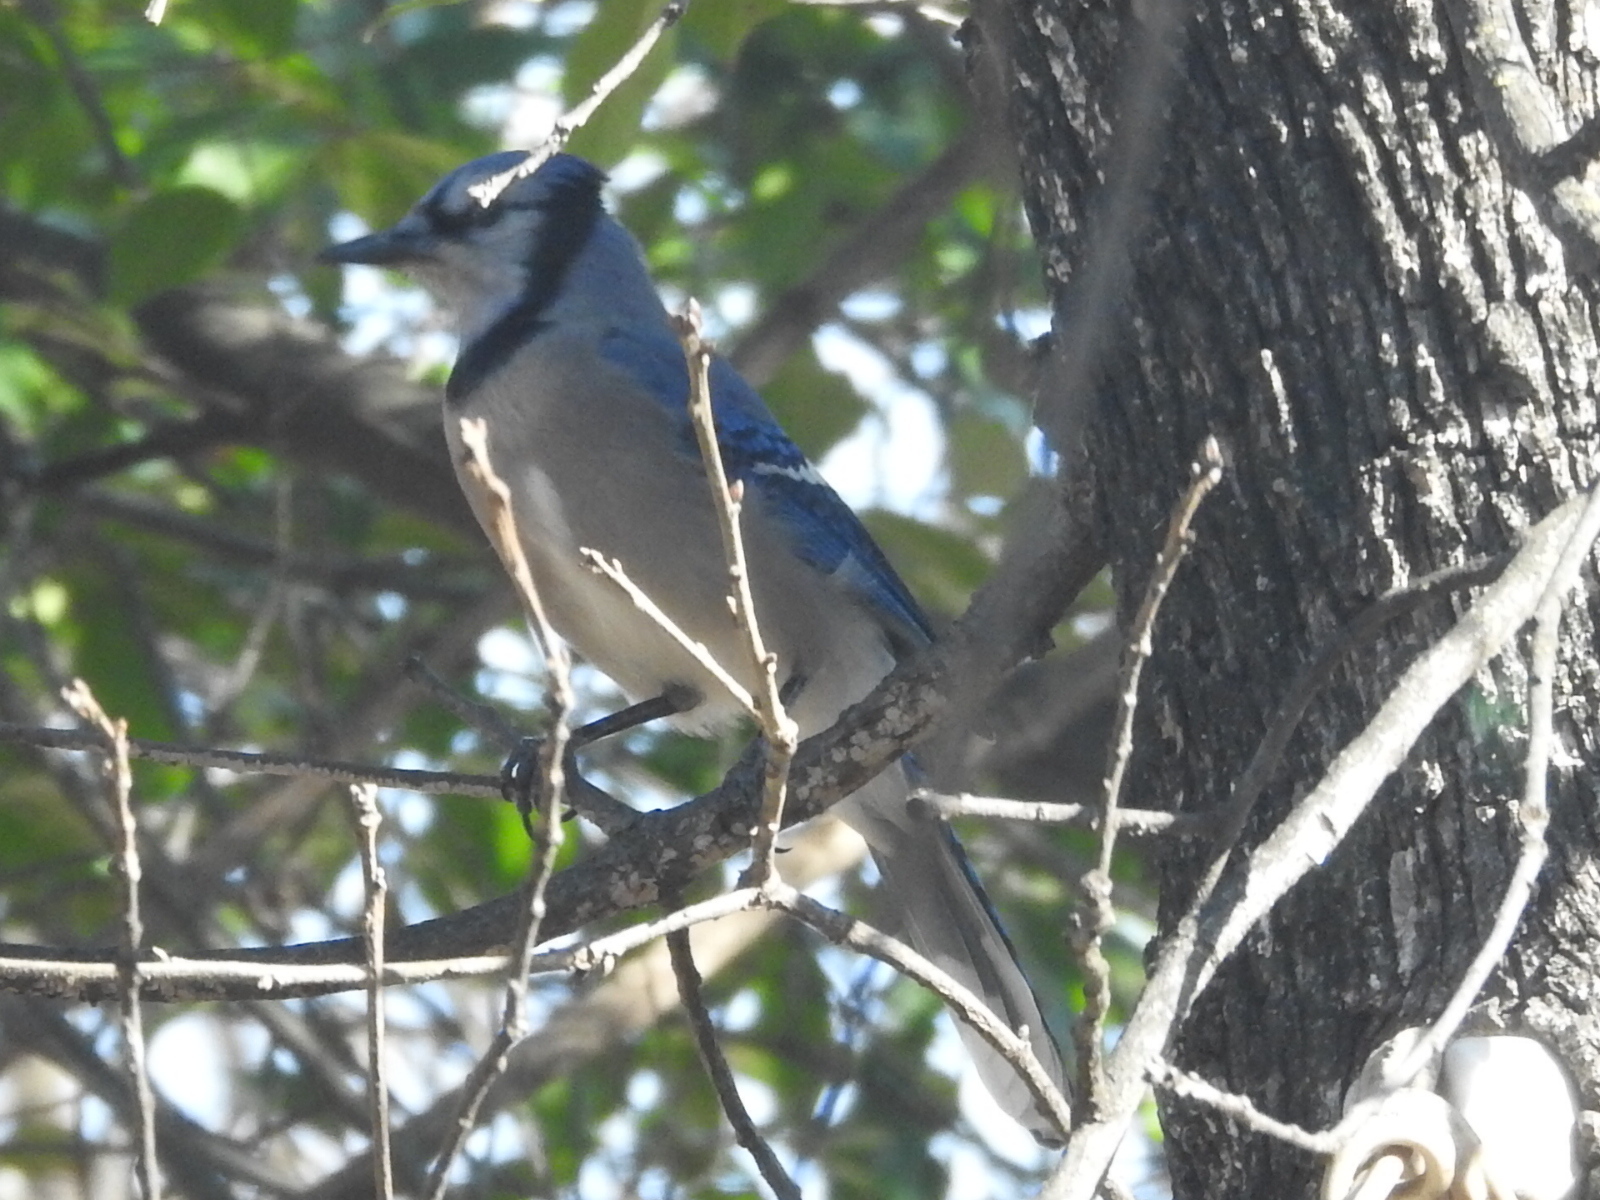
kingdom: Animalia
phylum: Chordata
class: Aves
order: Passeriformes
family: Corvidae
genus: Cyanocitta
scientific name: Cyanocitta cristata
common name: Blue jay
